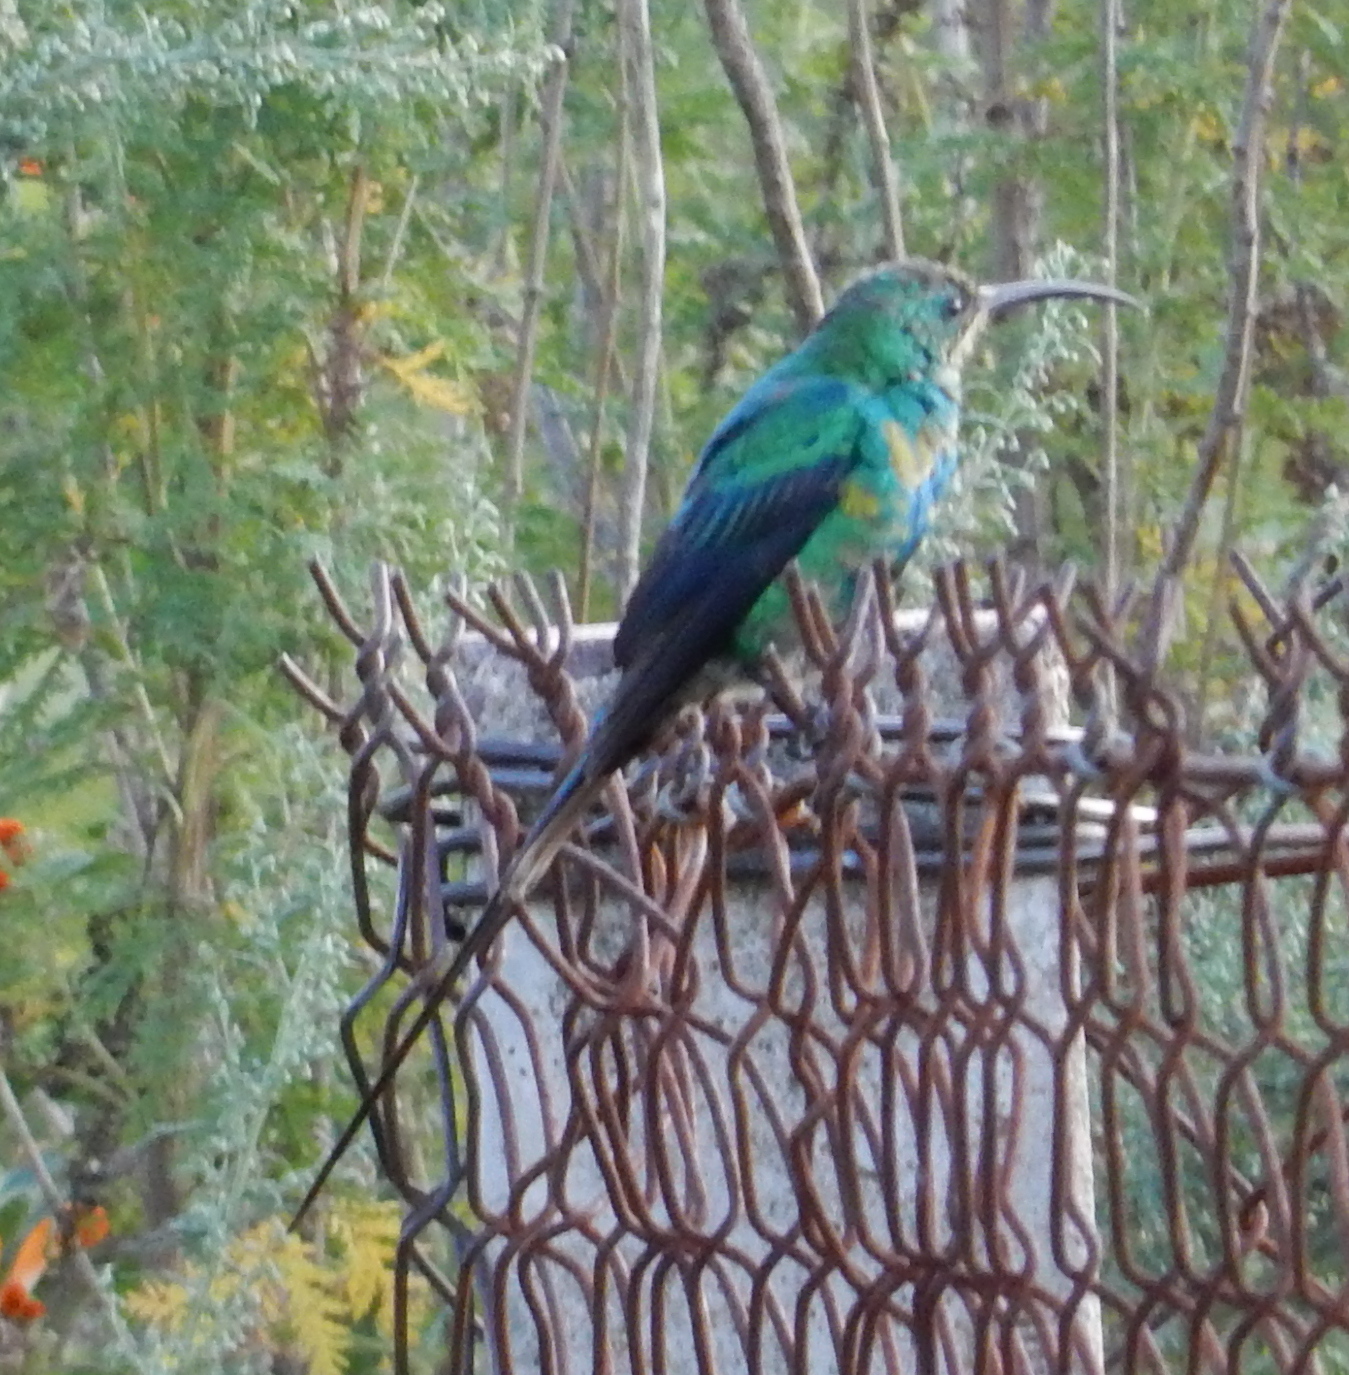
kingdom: Animalia
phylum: Chordata
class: Aves
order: Passeriformes
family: Nectariniidae
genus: Nectarinia
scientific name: Nectarinia famosa
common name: Malachite sunbird
